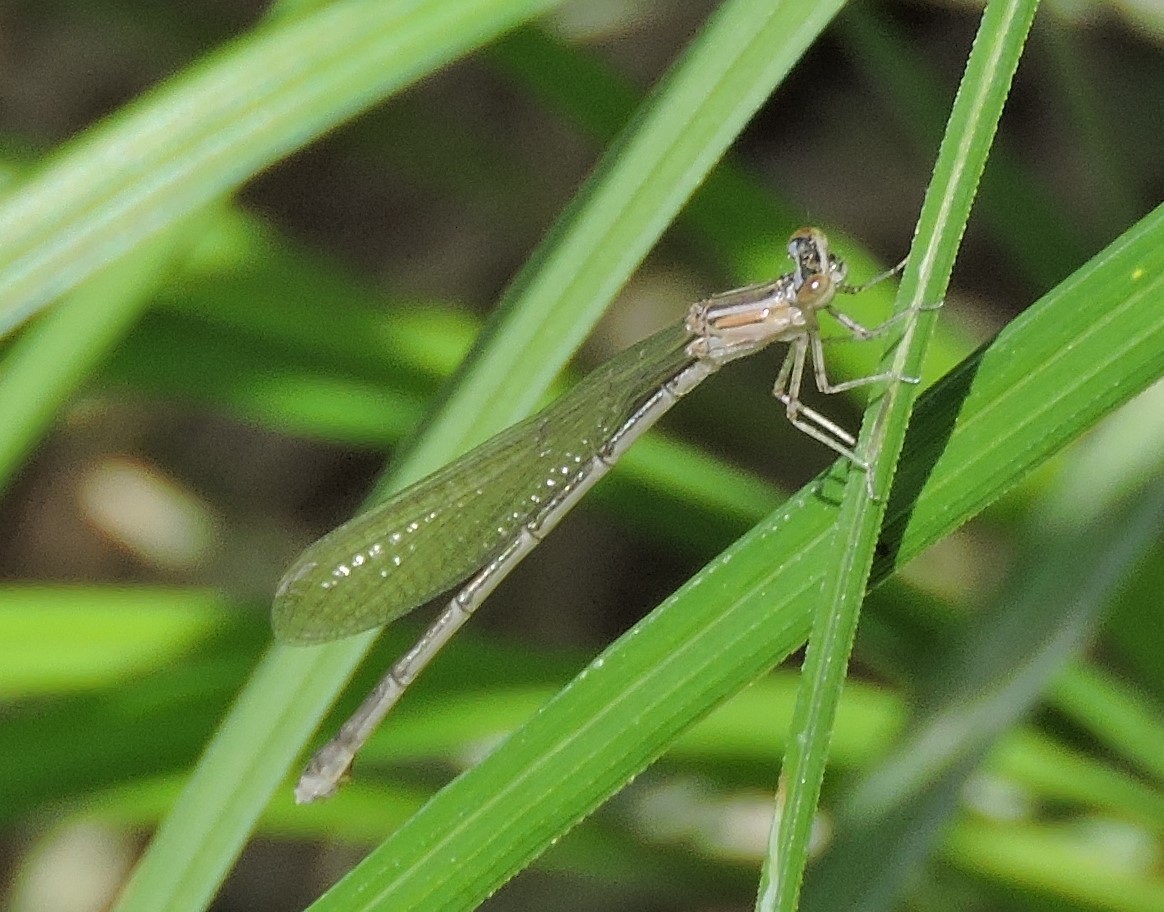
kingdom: Animalia
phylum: Arthropoda
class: Insecta
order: Odonata
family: Coenagrionidae
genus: Enallagma
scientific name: Enallagma exsulans
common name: Stream bluet
